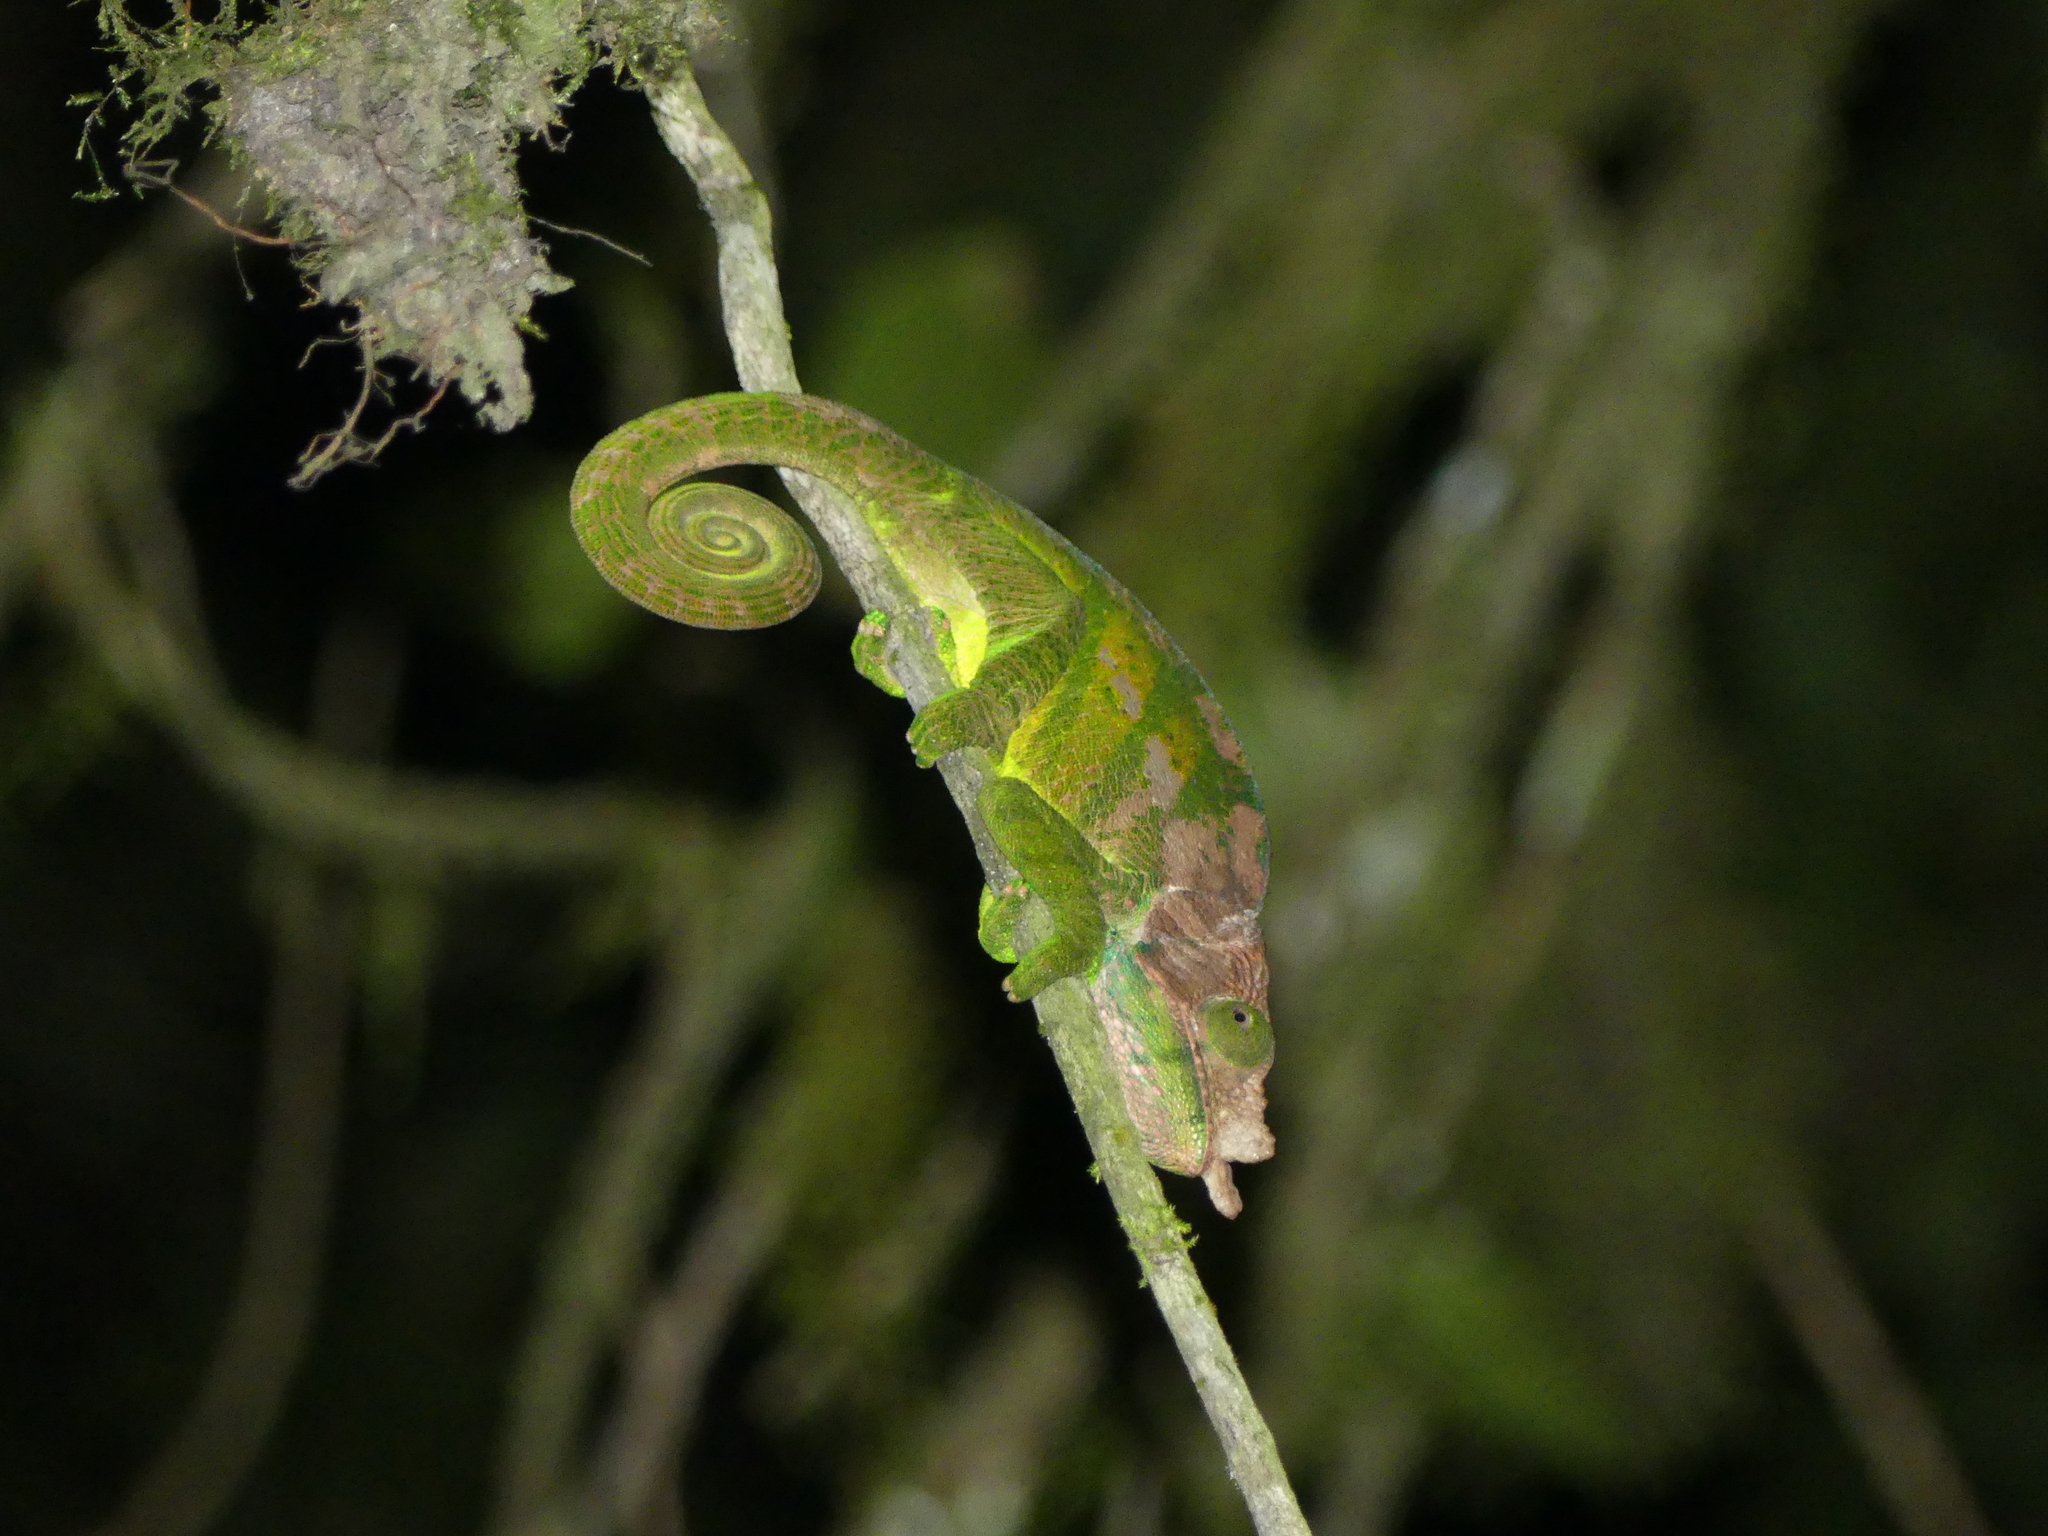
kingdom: Animalia
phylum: Chordata
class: Squamata
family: Chamaeleonidae
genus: Calumma
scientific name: Calumma oshaughnessyi
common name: O'shaughnessy's chameleon
